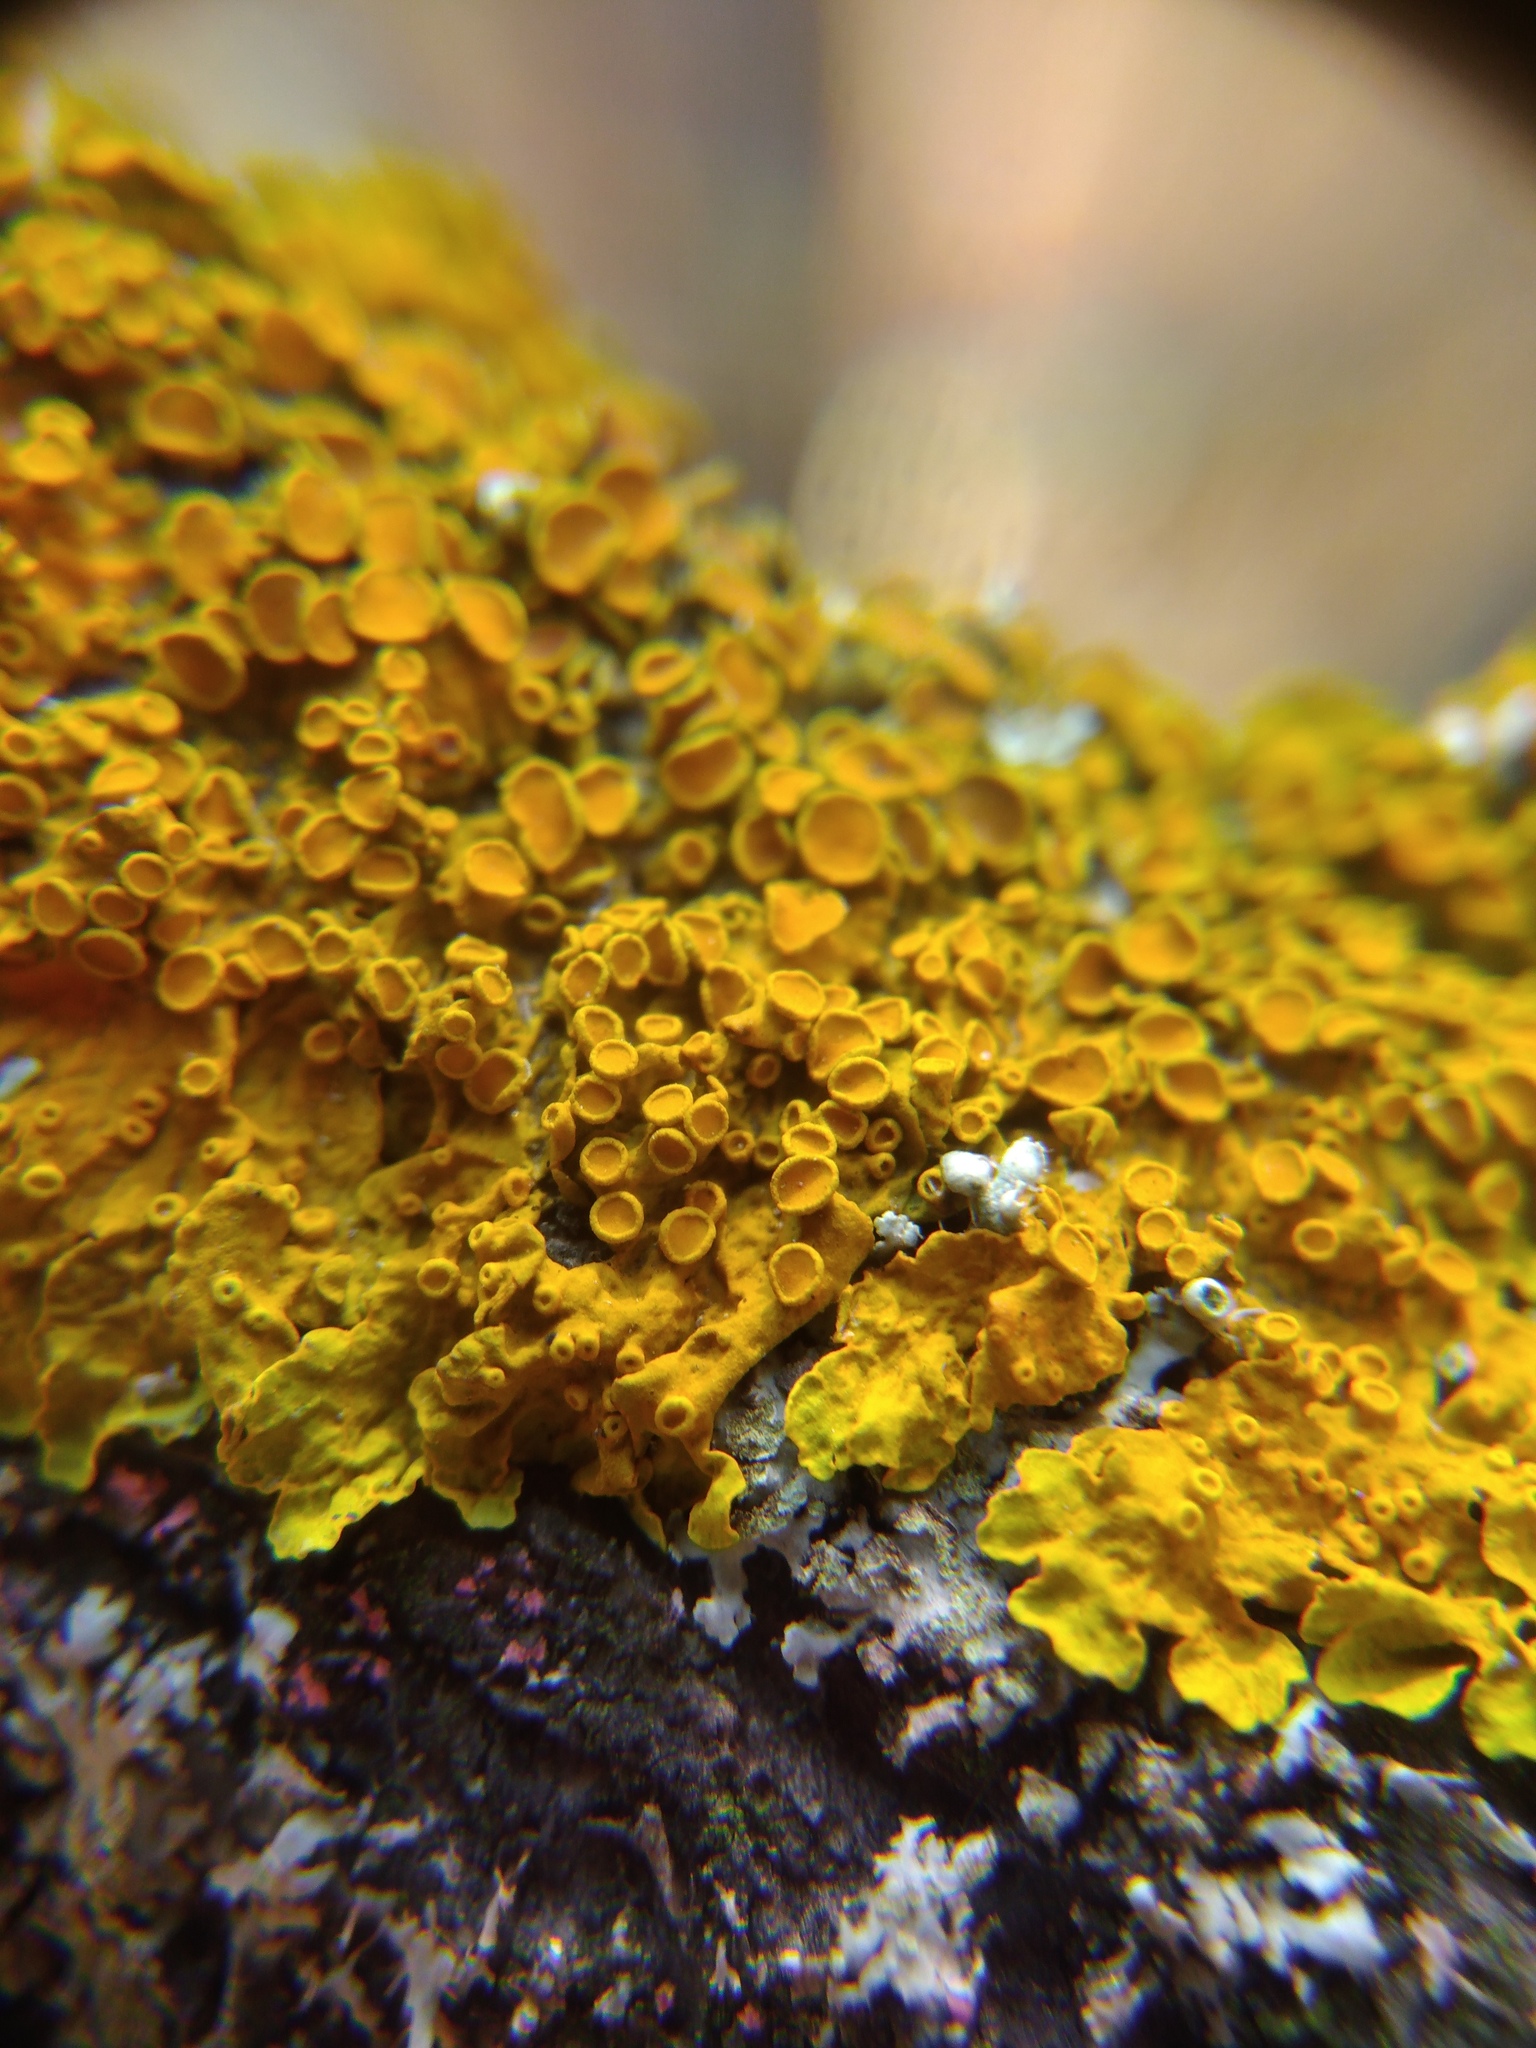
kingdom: Fungi
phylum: Ascomycota
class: Lecanoromycetes
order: Teloschistales
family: Teloschistaceae
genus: Xanthoria
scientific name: Xanthoria parietina
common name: Common orange lichen
